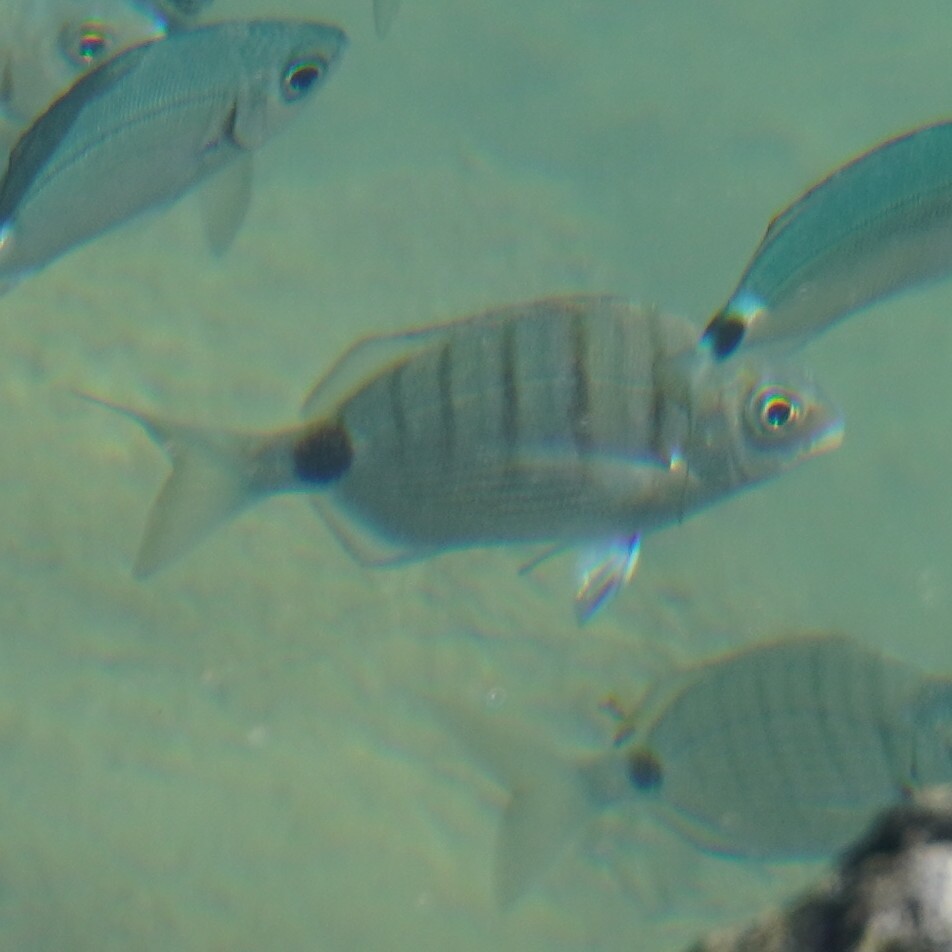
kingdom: Animalia
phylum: Chordata
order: Perciformes
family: Sparidae
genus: Diplodus
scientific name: Diplodus cadenati
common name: Moroccan white seabream
